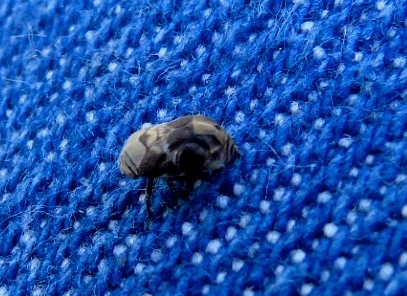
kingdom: Animalia
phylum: Arthropoda
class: Insecta
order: Hemiptera
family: Clastopteridae
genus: Clastoptera
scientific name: Clastoptera
